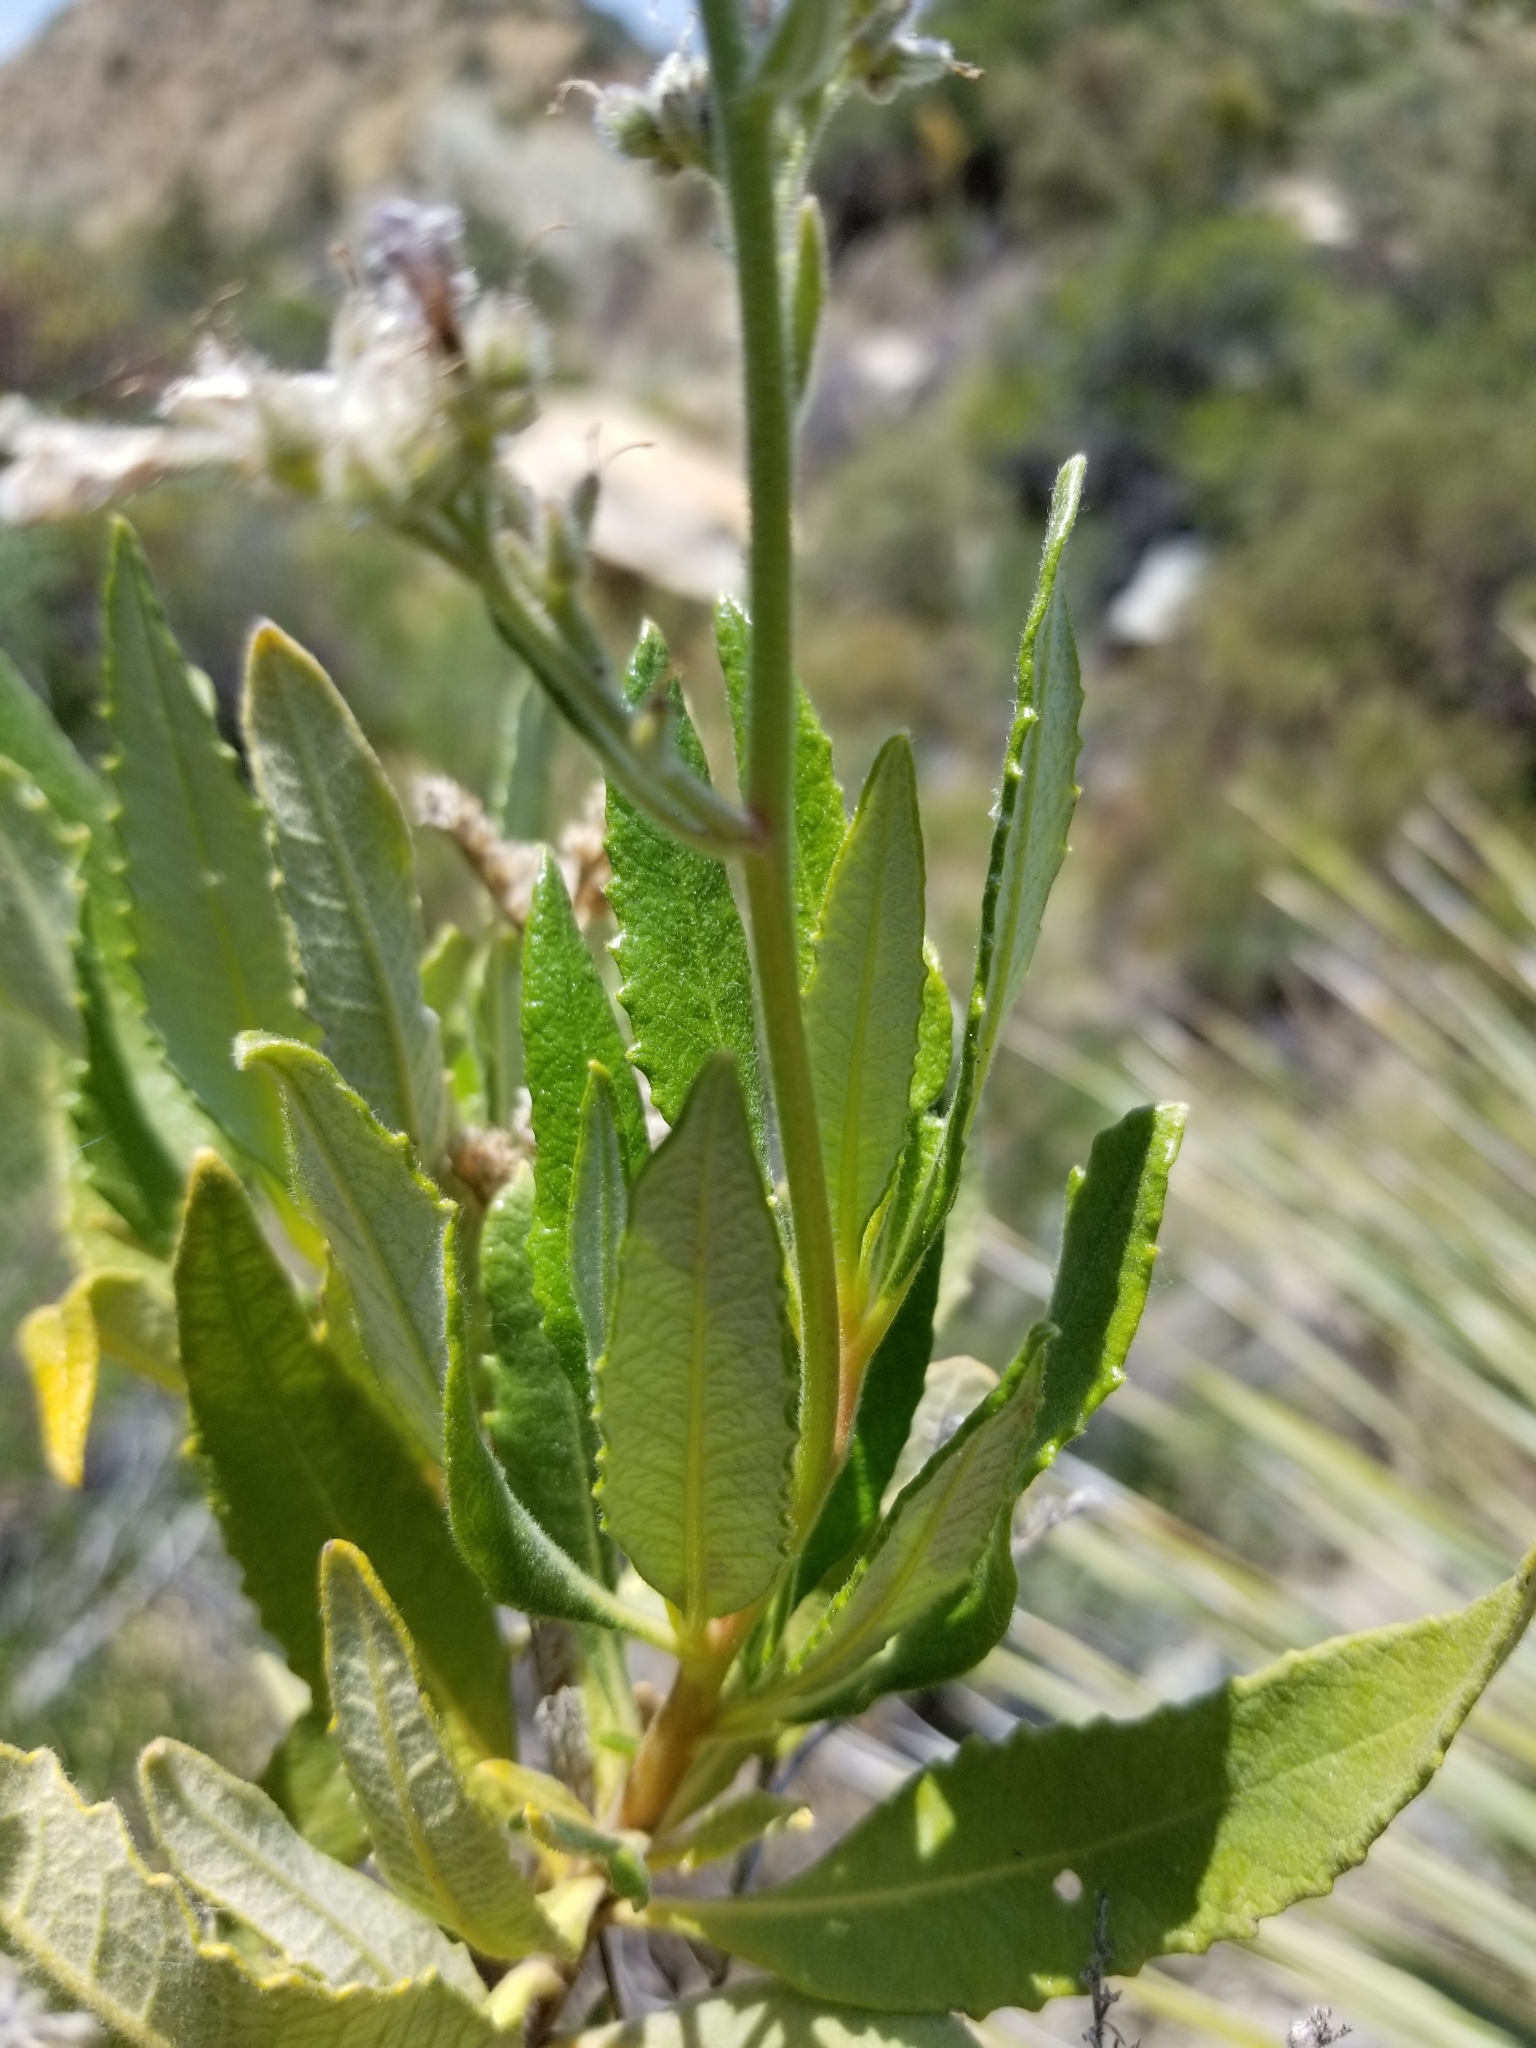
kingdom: Plantae
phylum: Tracheophyta
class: Magnoliopsida
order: Boraginales
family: Namaceae
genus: Eriodictyon
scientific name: Eriodictyon trichocalyx
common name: Hairy yerba-santa
